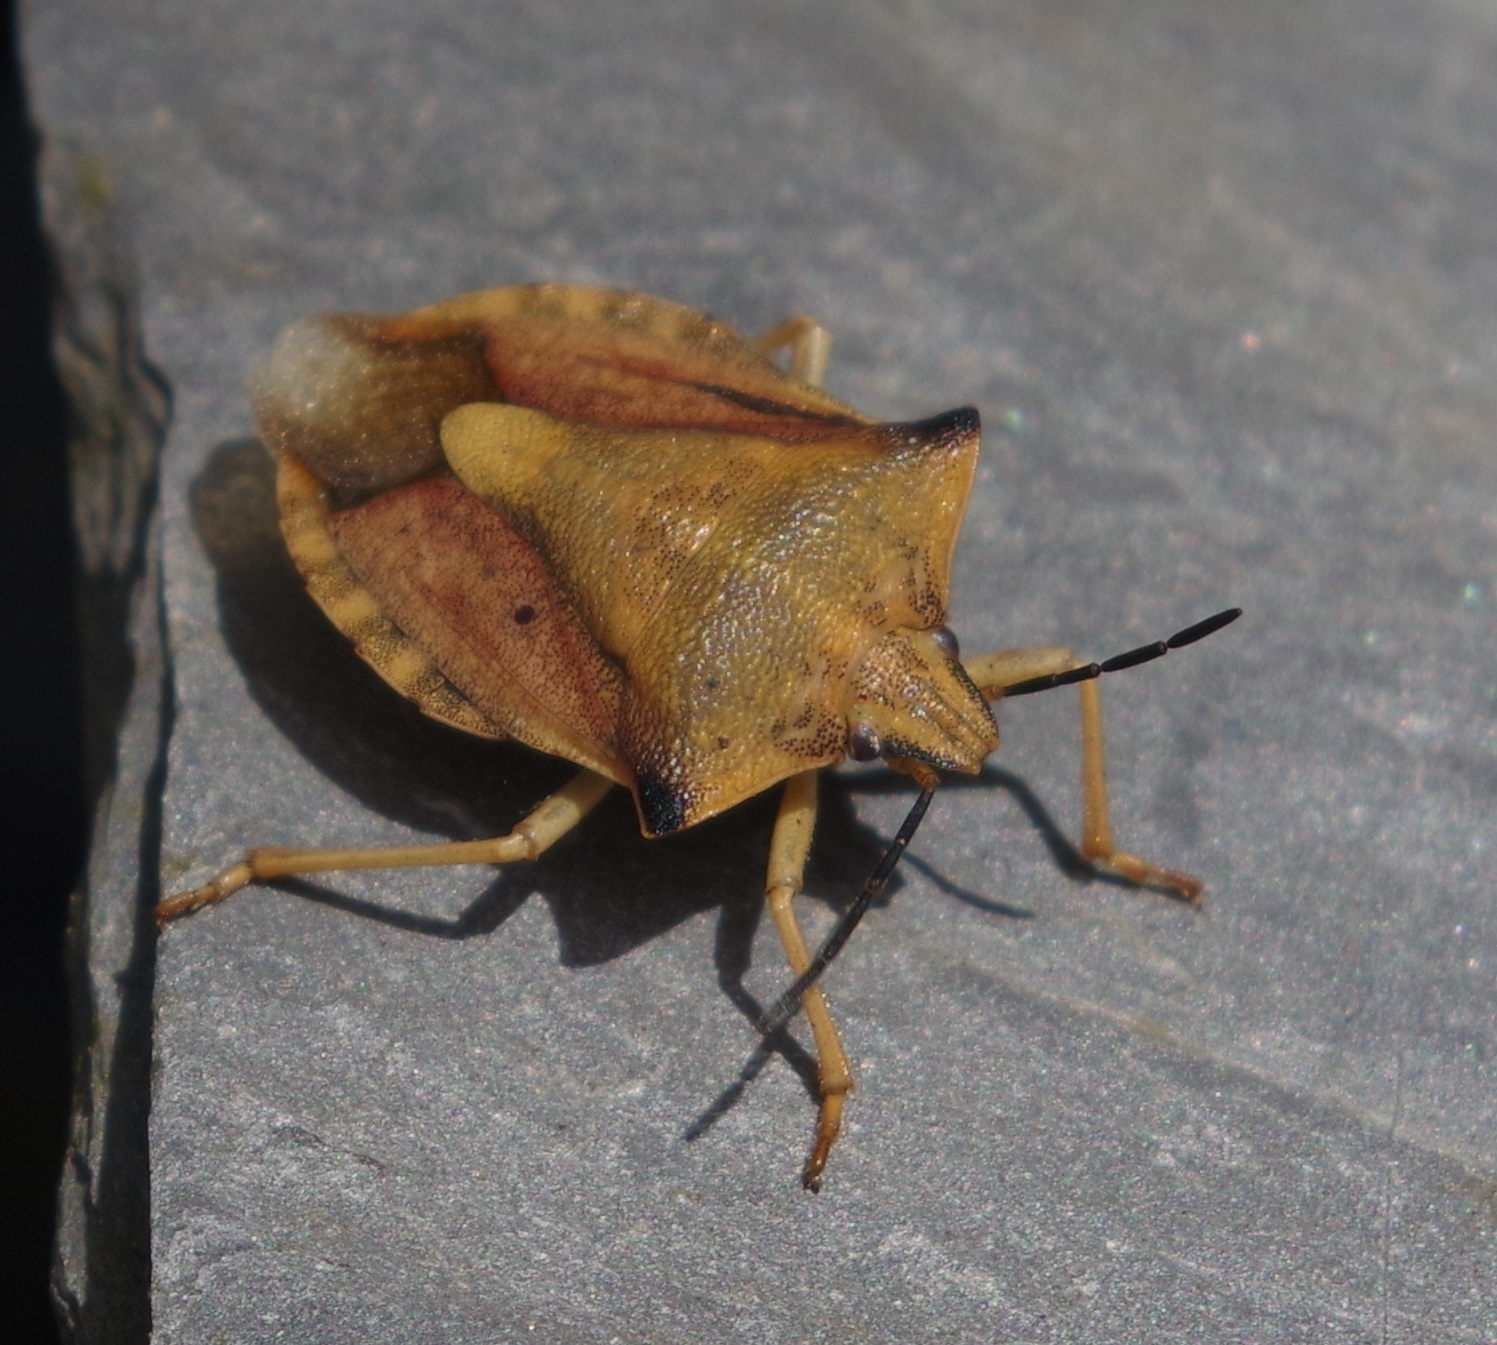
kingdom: Animalia
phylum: Arthropoda
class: Insecta
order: Hemiptera
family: Pentatomidae
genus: Carpocoris
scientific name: Carpocoris fuscispinus
